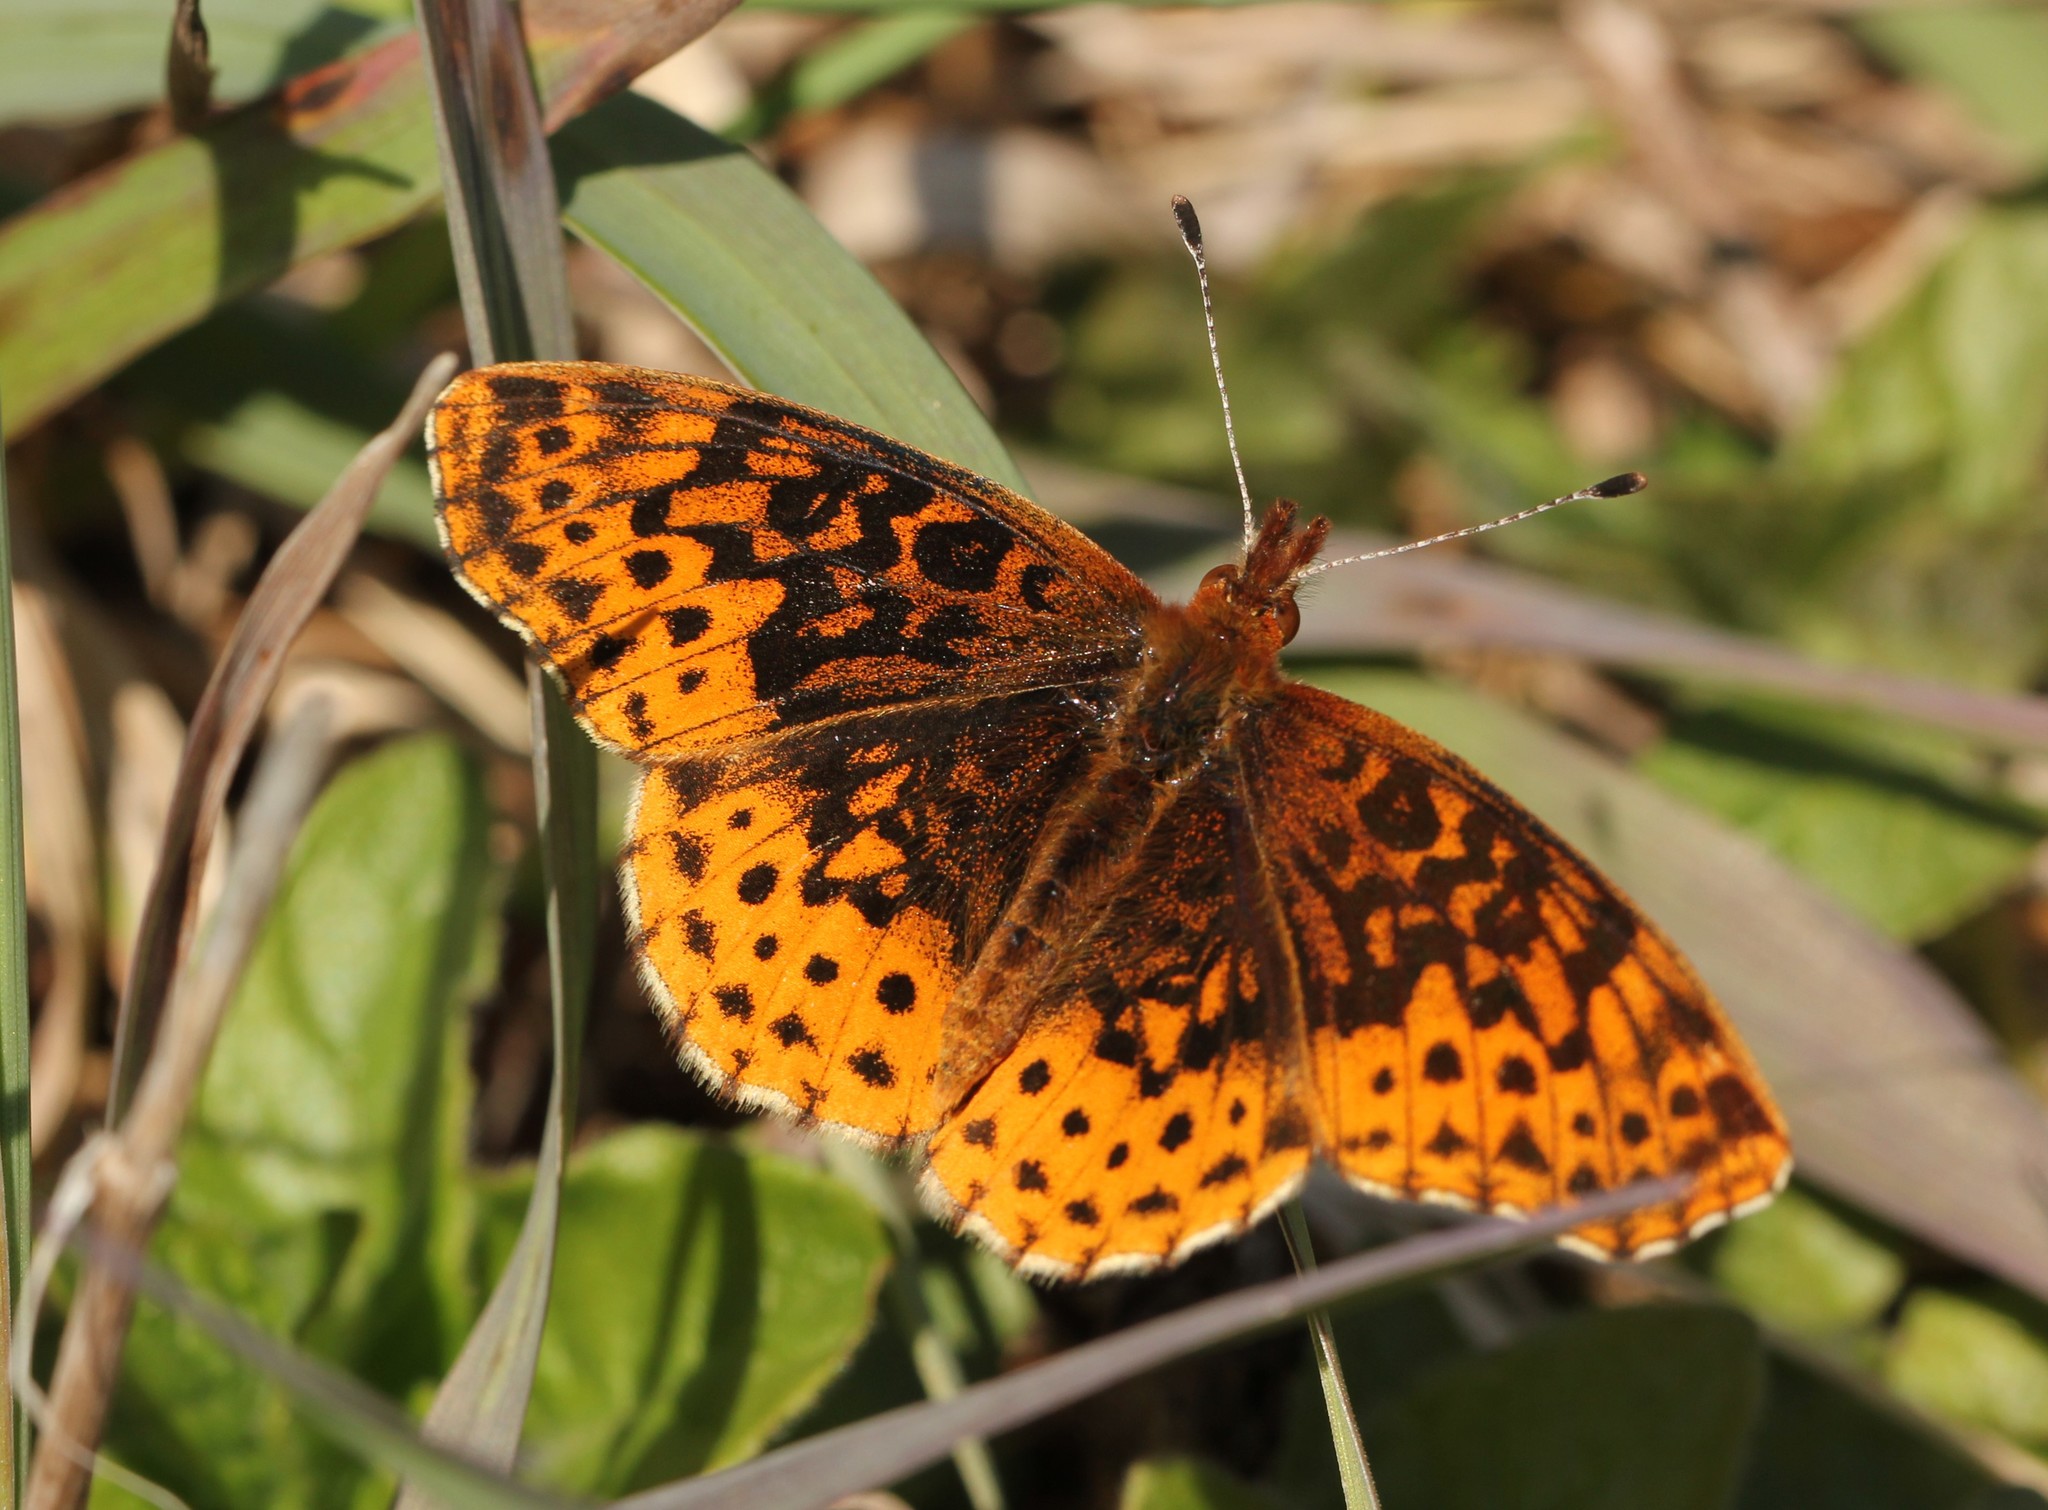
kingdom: Animalia
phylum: Arthropoda
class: Insecta
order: Lepidoptera
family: Nymphalidae
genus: Clossiana
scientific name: Clossiana toddi
